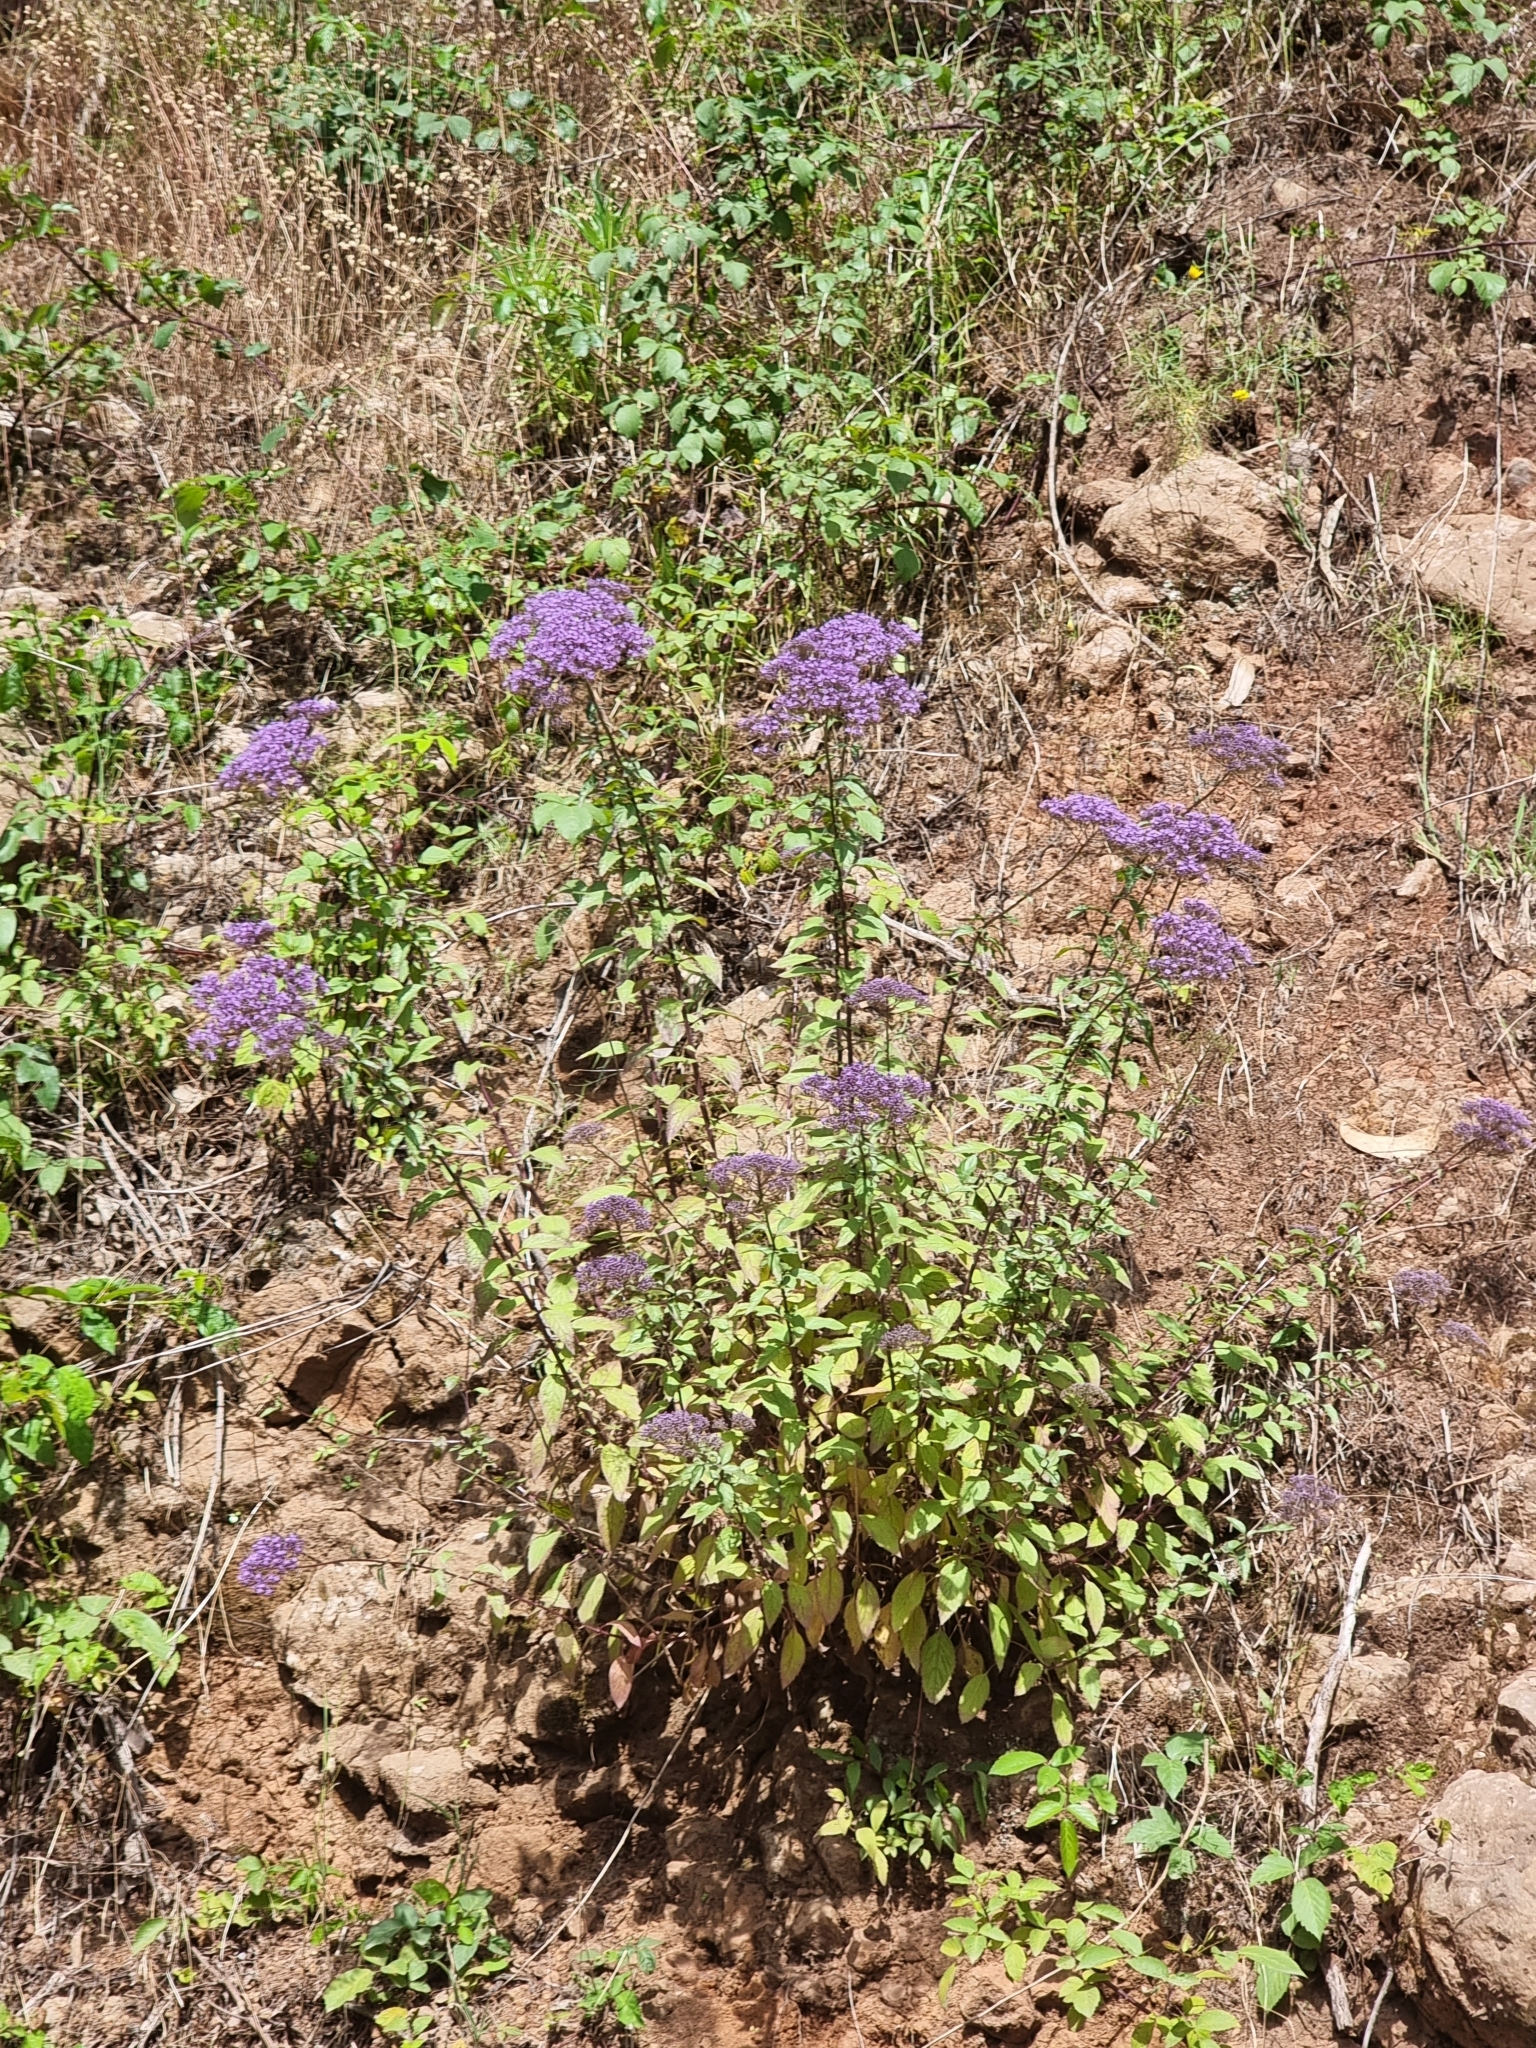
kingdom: Plantae
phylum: Tracheophyta
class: Magnoliopsida
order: Asterales
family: Campanulaceae
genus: Trachelium
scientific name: Trachelium caeruleum
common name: Throatwort
